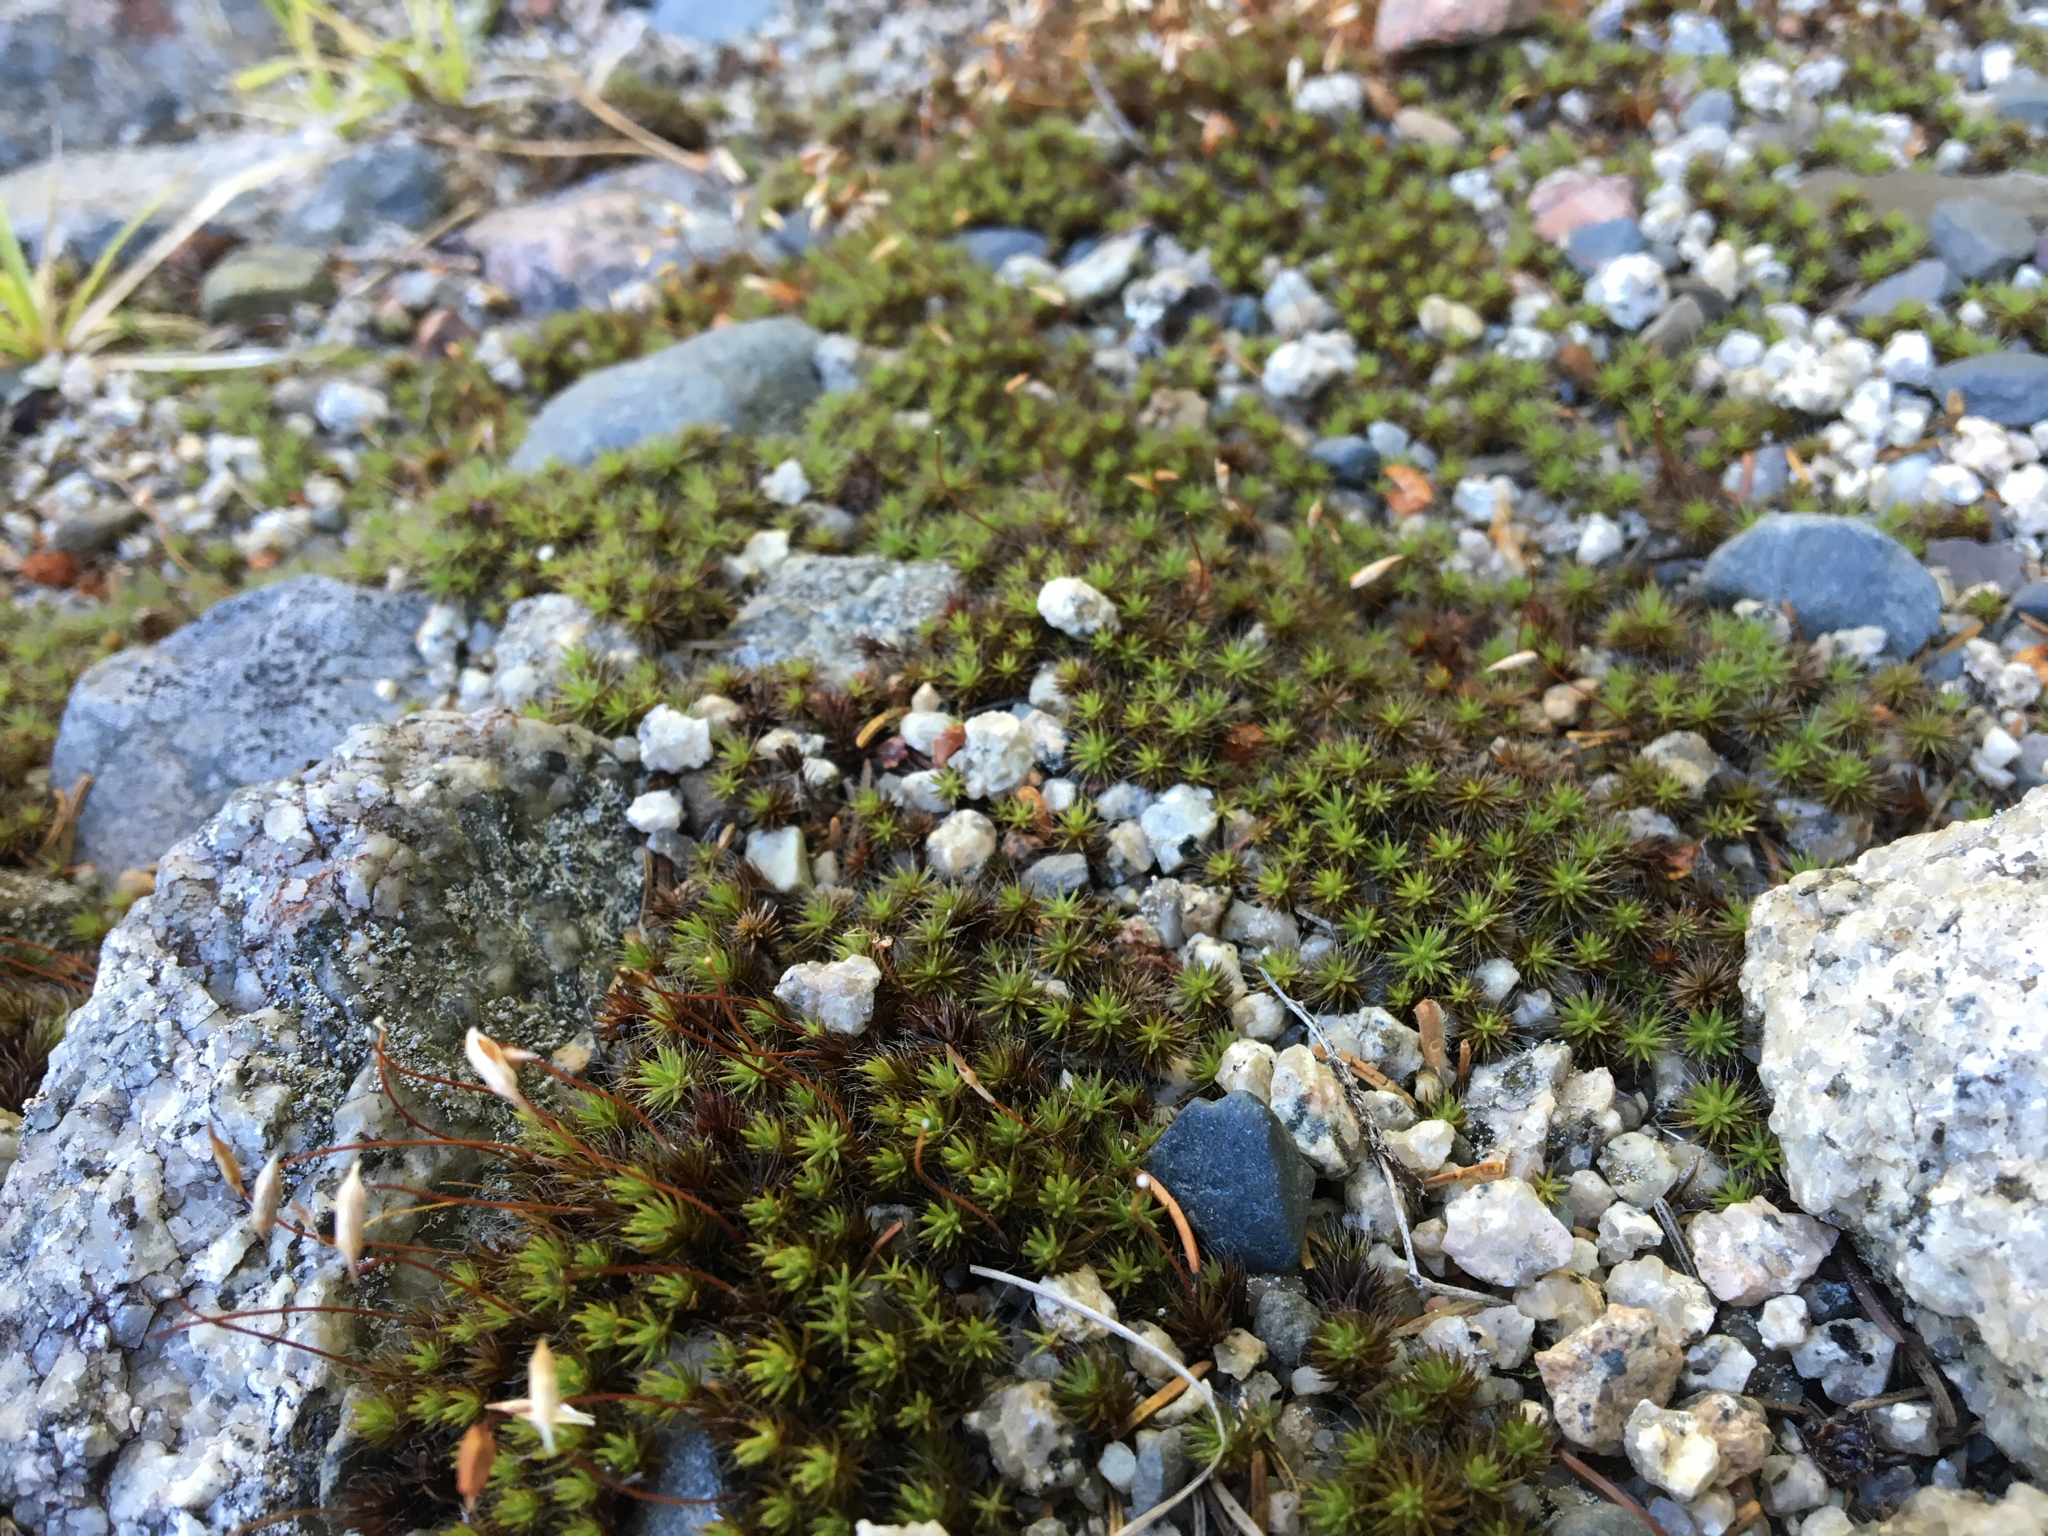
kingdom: Plantae
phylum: Bryophyta
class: Polytrichopsida
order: Polytrichales
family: Polytrichaceae
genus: Polytrichum
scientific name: Polytrichum piliferum
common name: Bristly haircap
